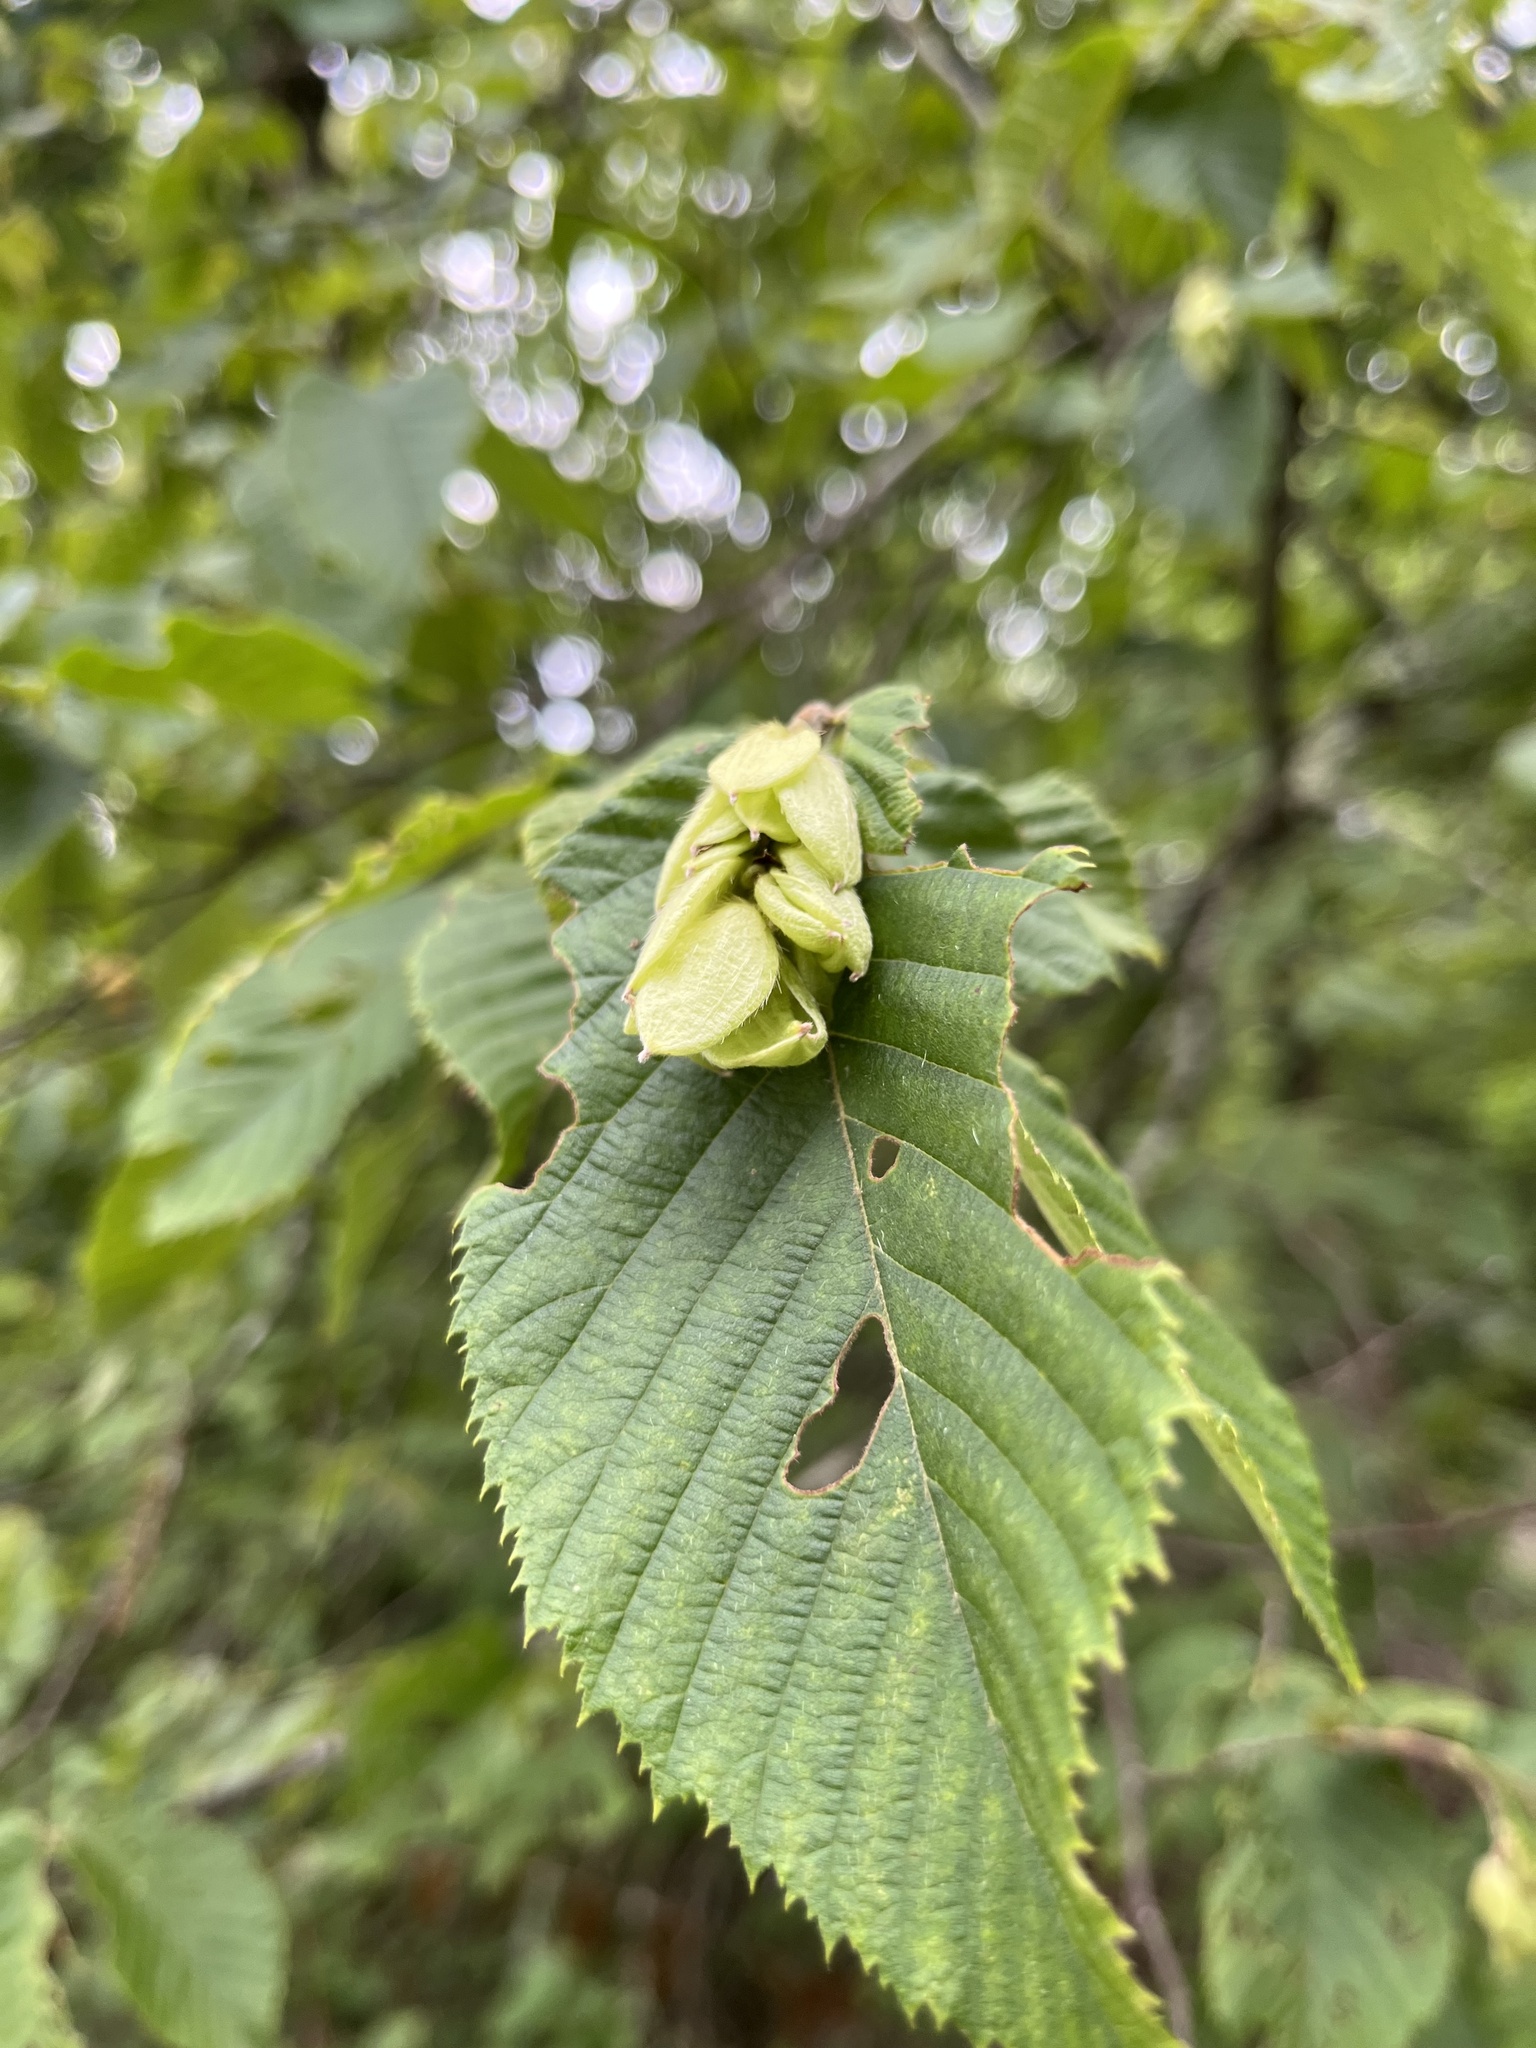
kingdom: Plantae
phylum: Tracheophyta
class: Magnoliopsida
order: Fagales
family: Betulaceae
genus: Ostrya
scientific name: Ostrya virginiana
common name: Ironwood
